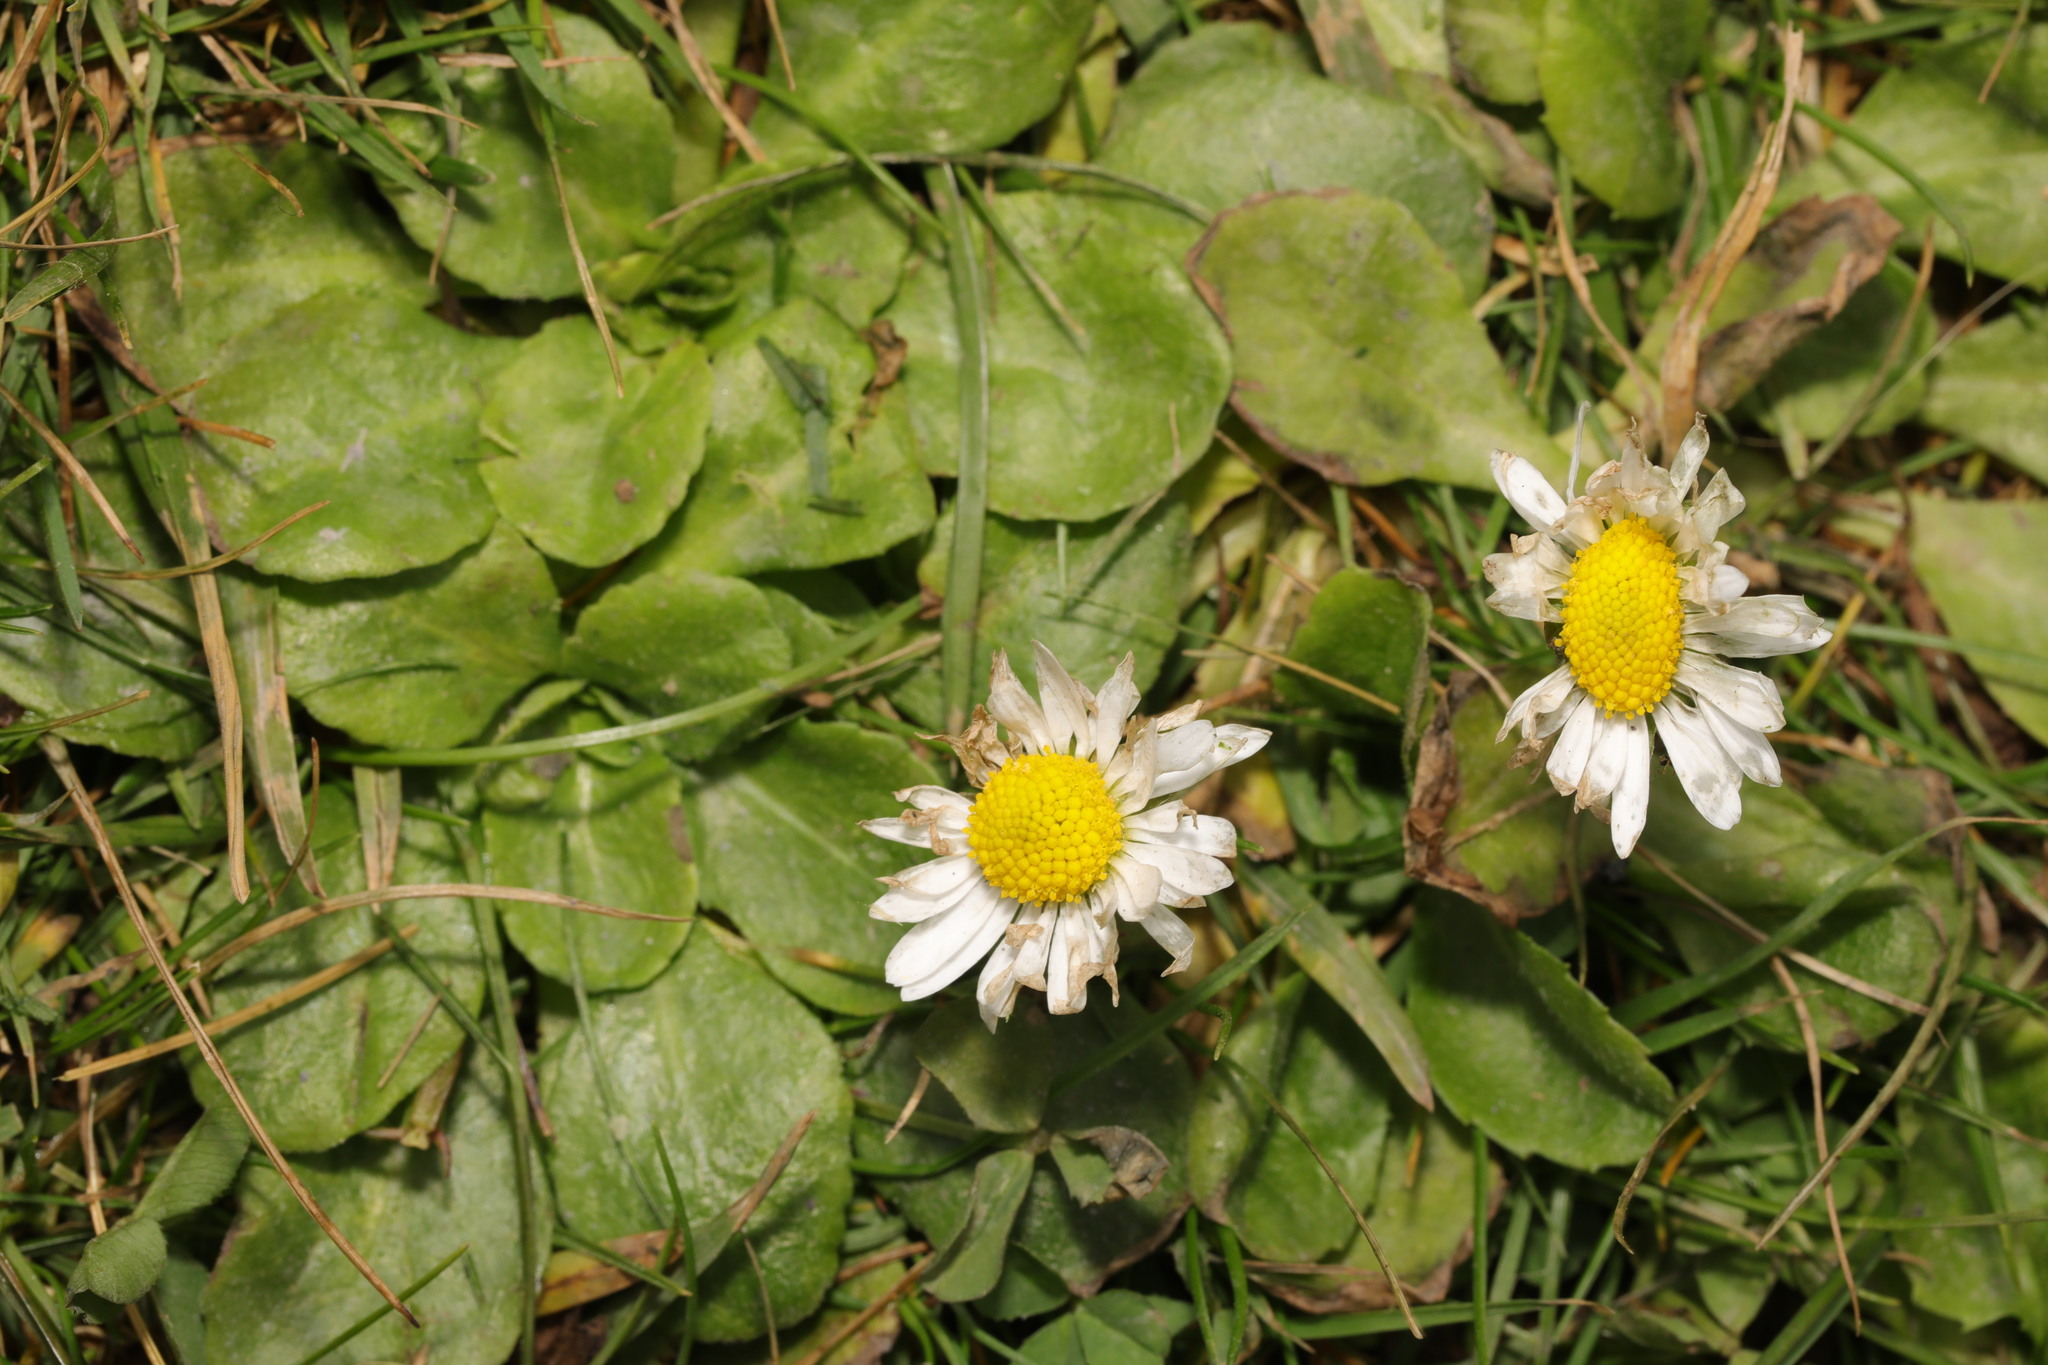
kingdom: Plantae
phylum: Tracheophyta
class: Magnoliopsida
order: Asterales
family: Asteraceae
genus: Bellis
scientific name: Bellis perennis
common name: Lawndaisy
